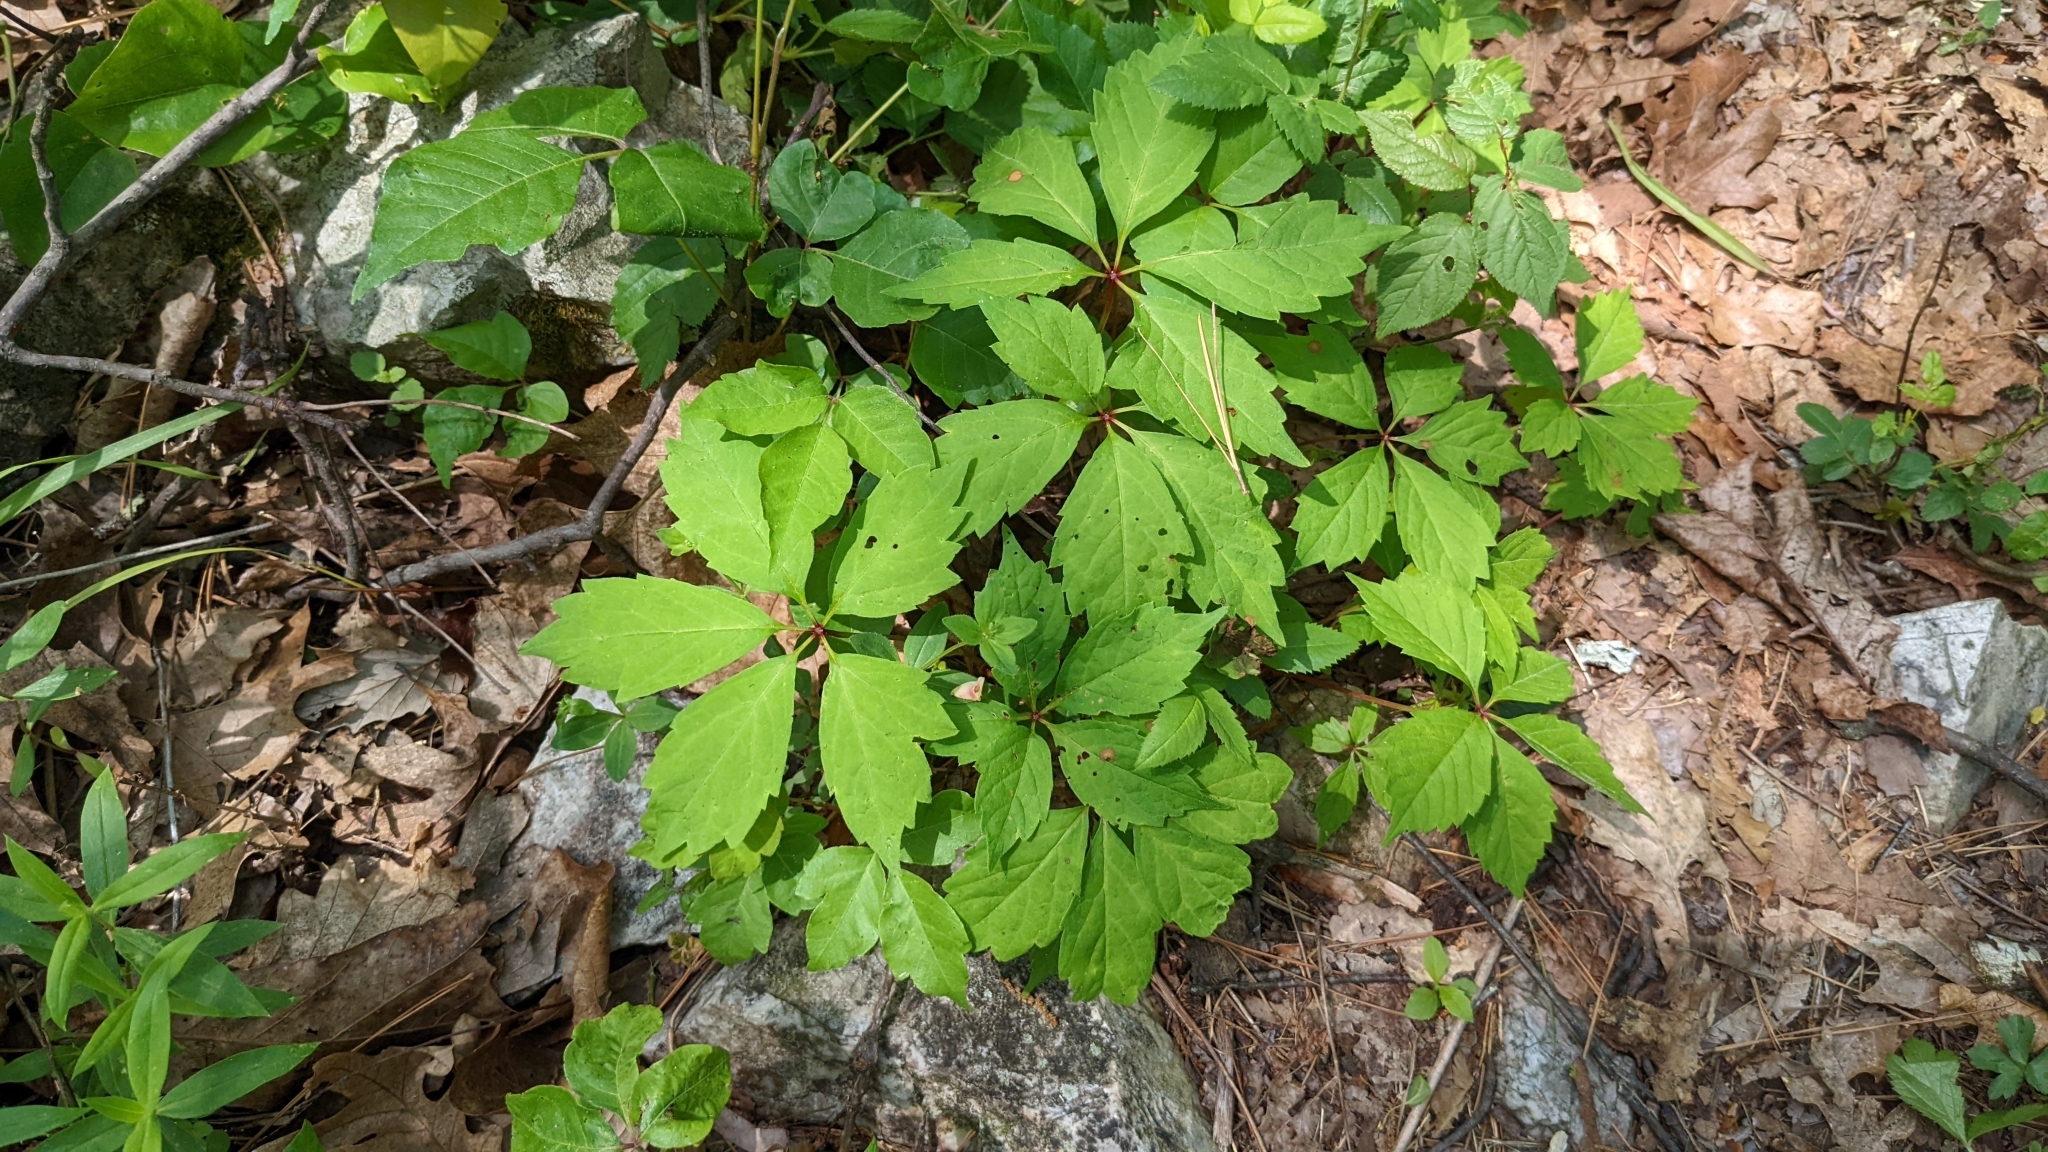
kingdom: Plantae
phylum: Tracheophyta
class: Magnoliopsida
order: Vitales
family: Vitaceae
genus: Parthenocissus
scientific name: Parthenocissus quinquefolia
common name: Virginia-creeper
